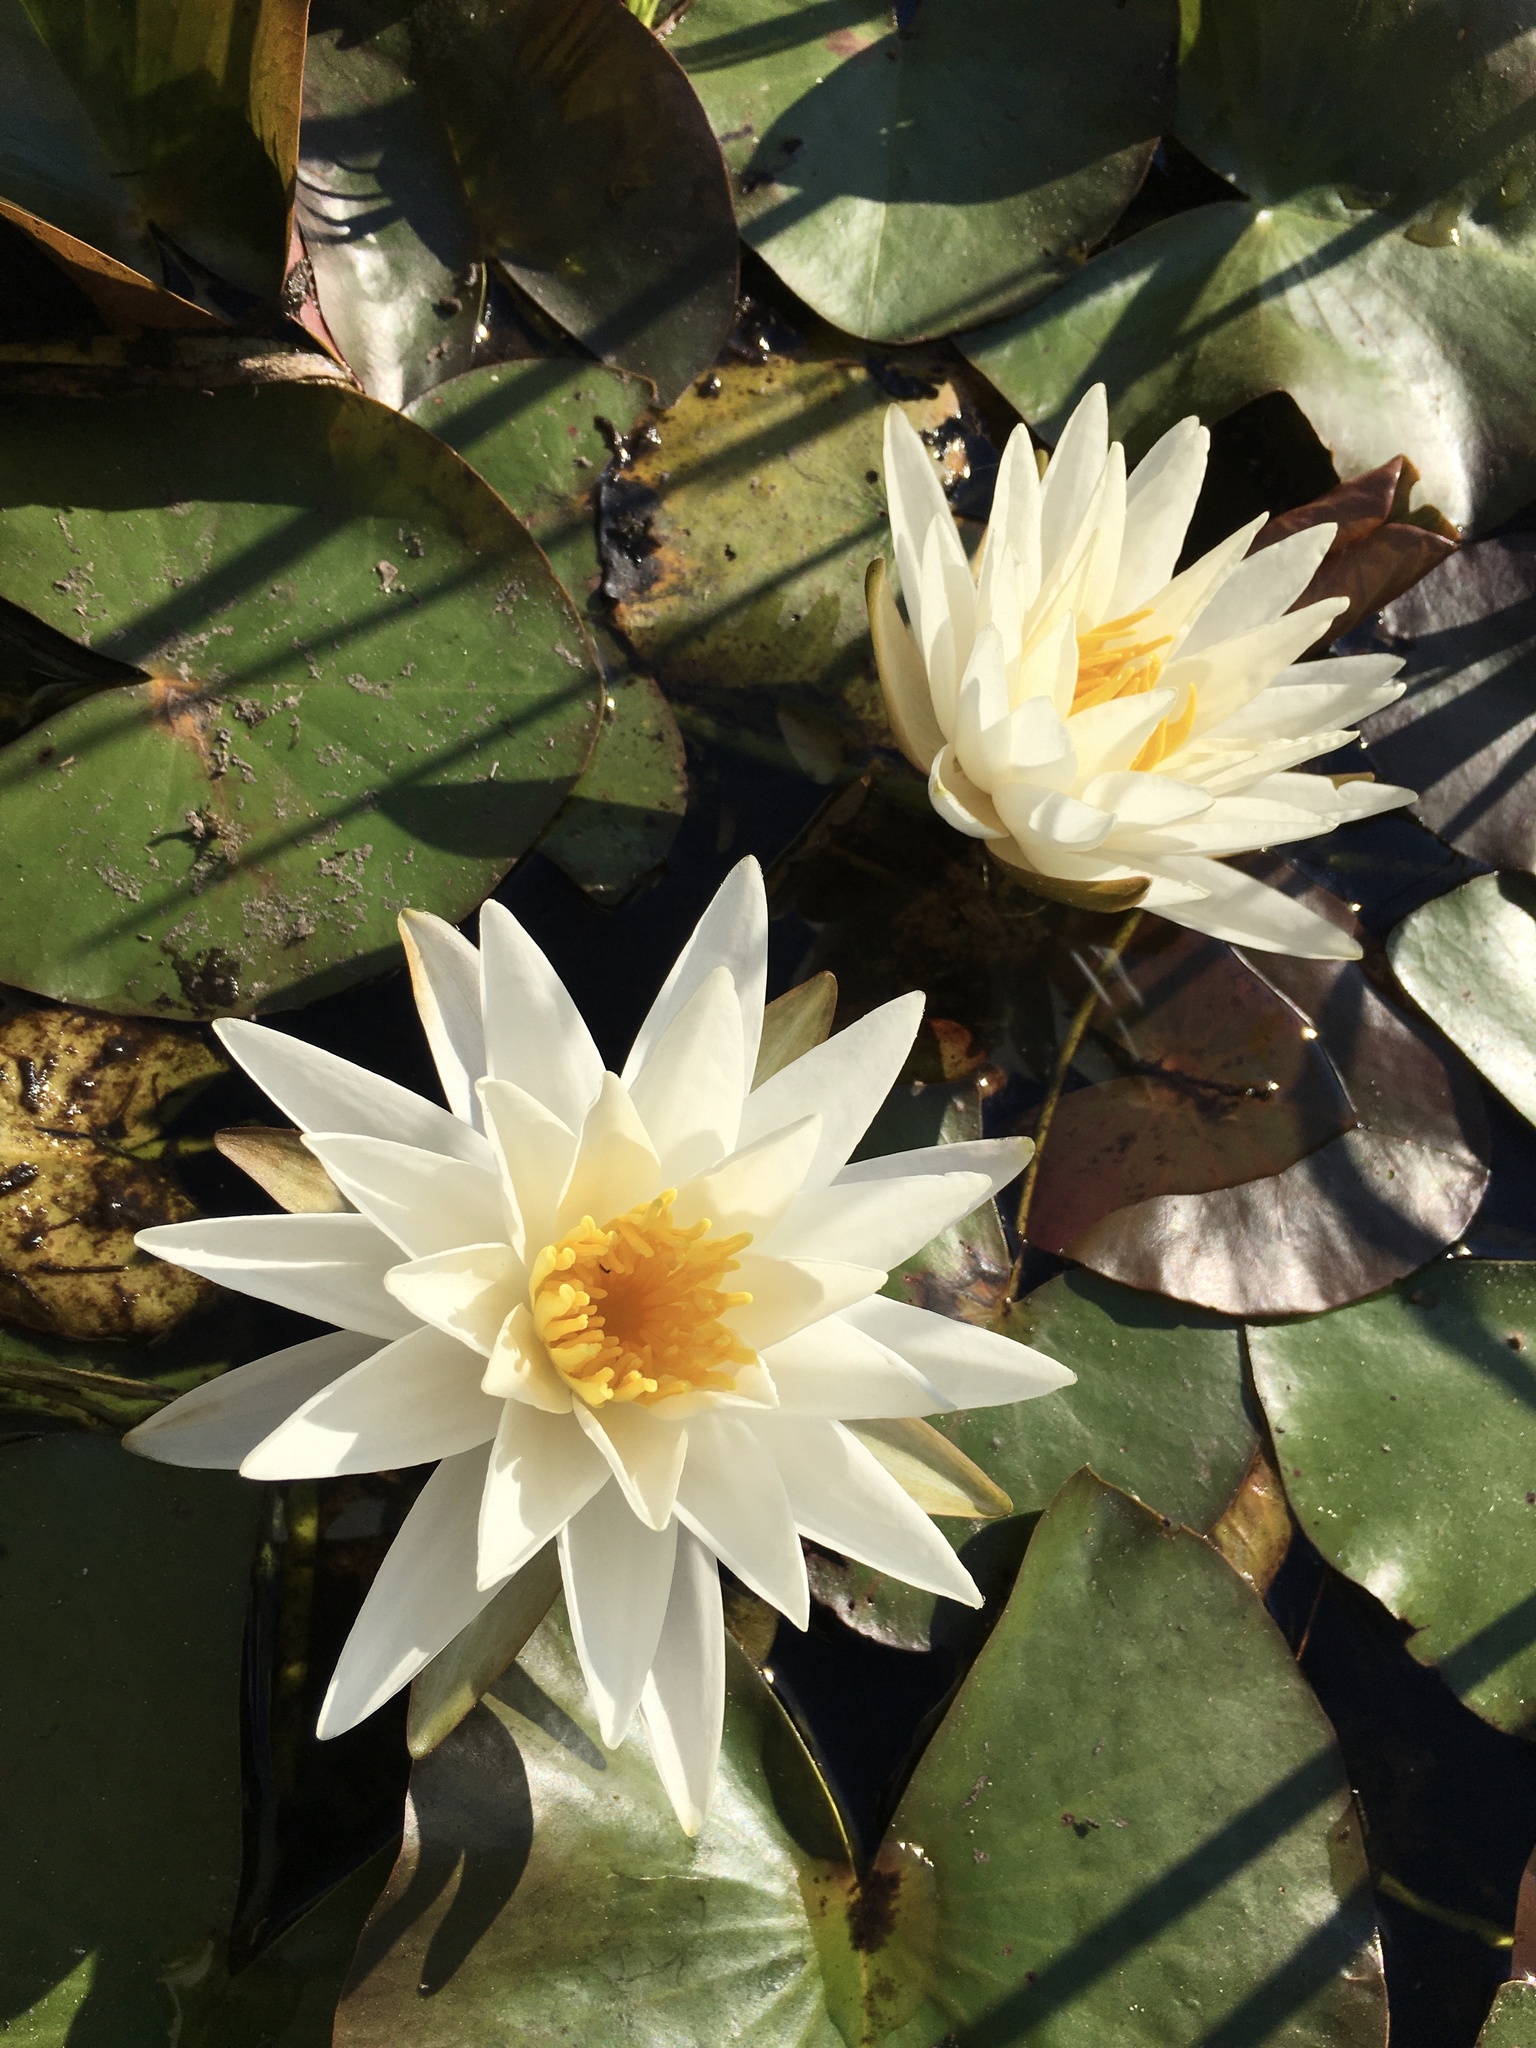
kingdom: Plantae
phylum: Tracheophyta
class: Magnoliopsida
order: Nymphaeales
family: Nymphaeaceae
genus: Nymphaea
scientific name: Nymphaea odorata
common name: Fragrant water-lily
